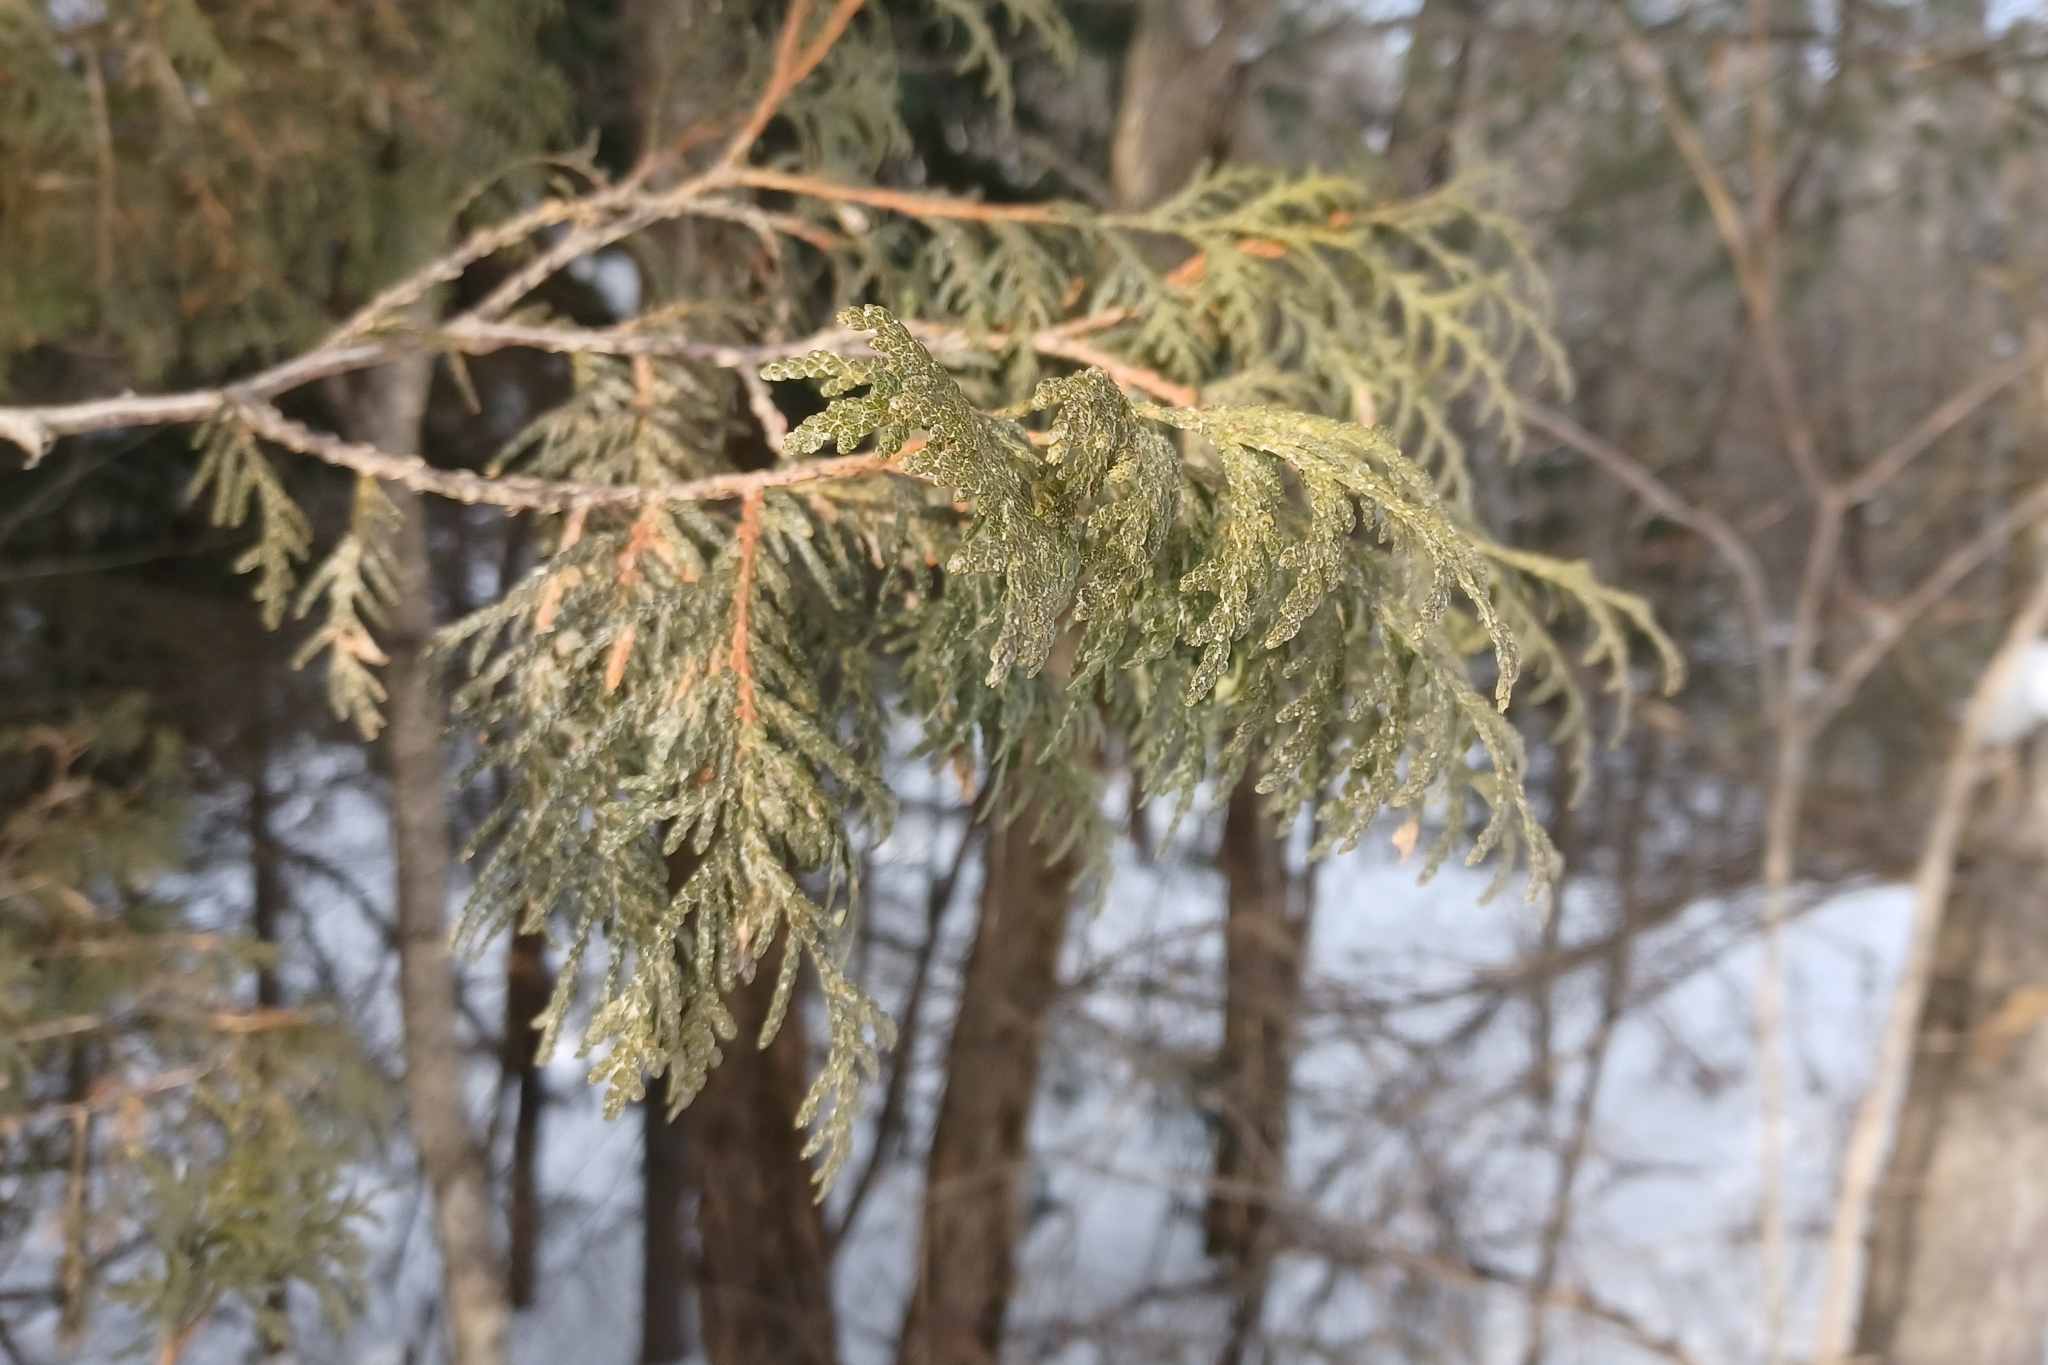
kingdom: Plantae
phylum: Tracheophyta
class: Pinopsida
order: Pinales
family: Cupressaceae
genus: Thuja
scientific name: Thuja occidentalis
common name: Northern white-cedar
